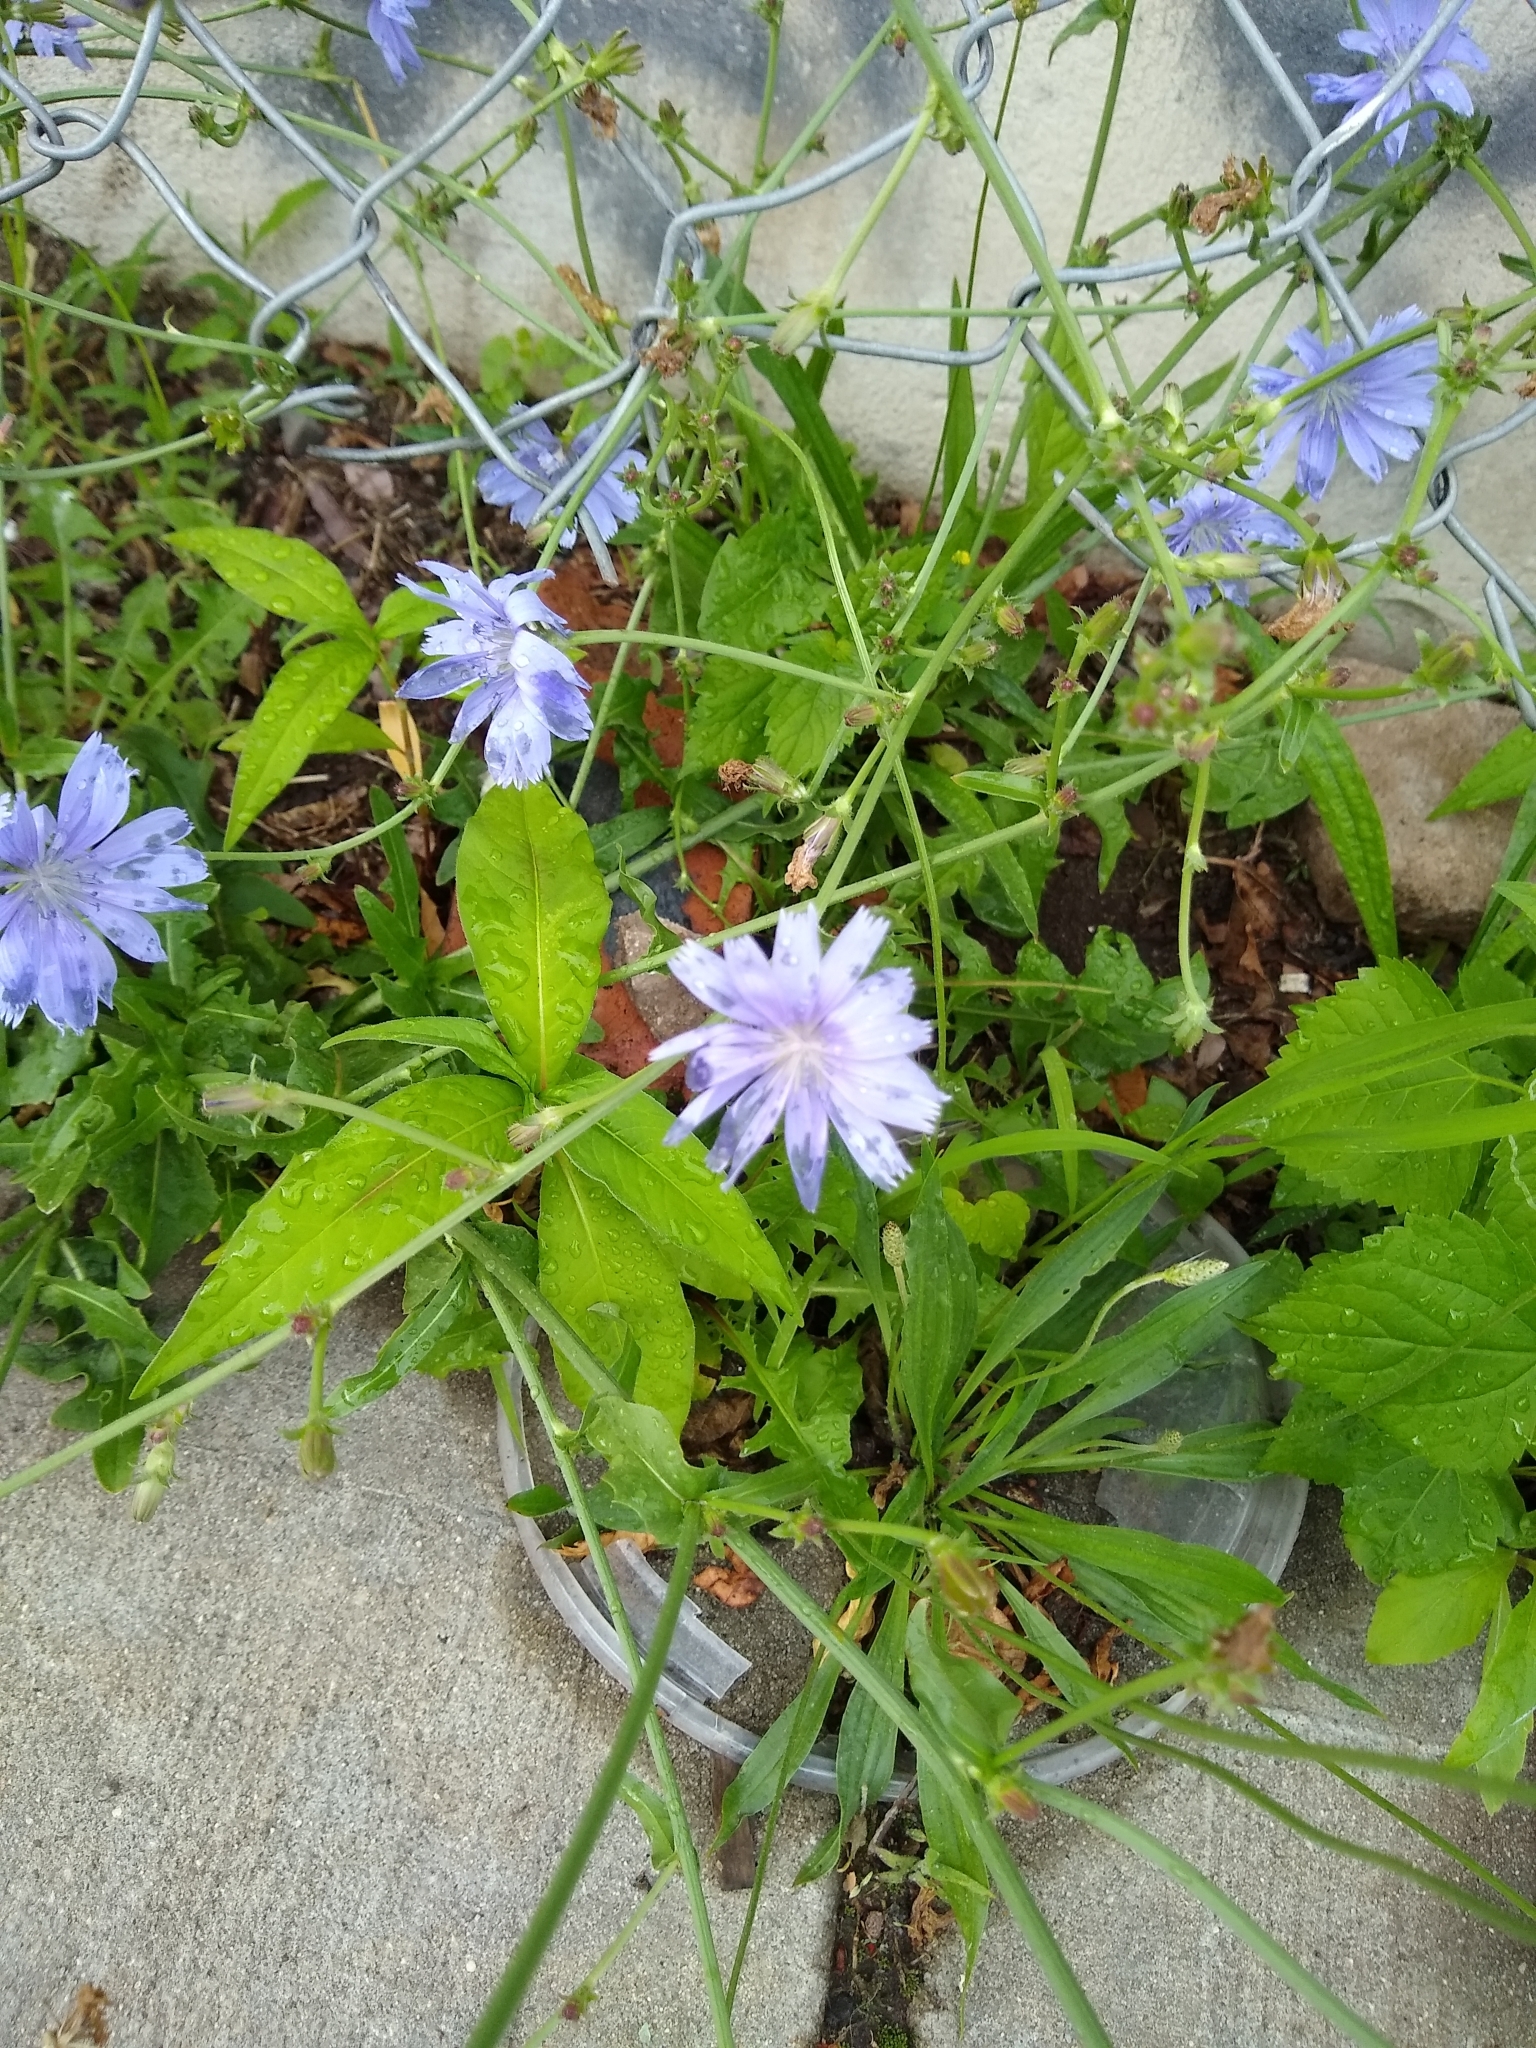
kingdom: Plantae
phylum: Tracheophyta
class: Magnoliopsida
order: Asterales
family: Asteraceae
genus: Cichorium
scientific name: Cichorium intybus
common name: Chicory
